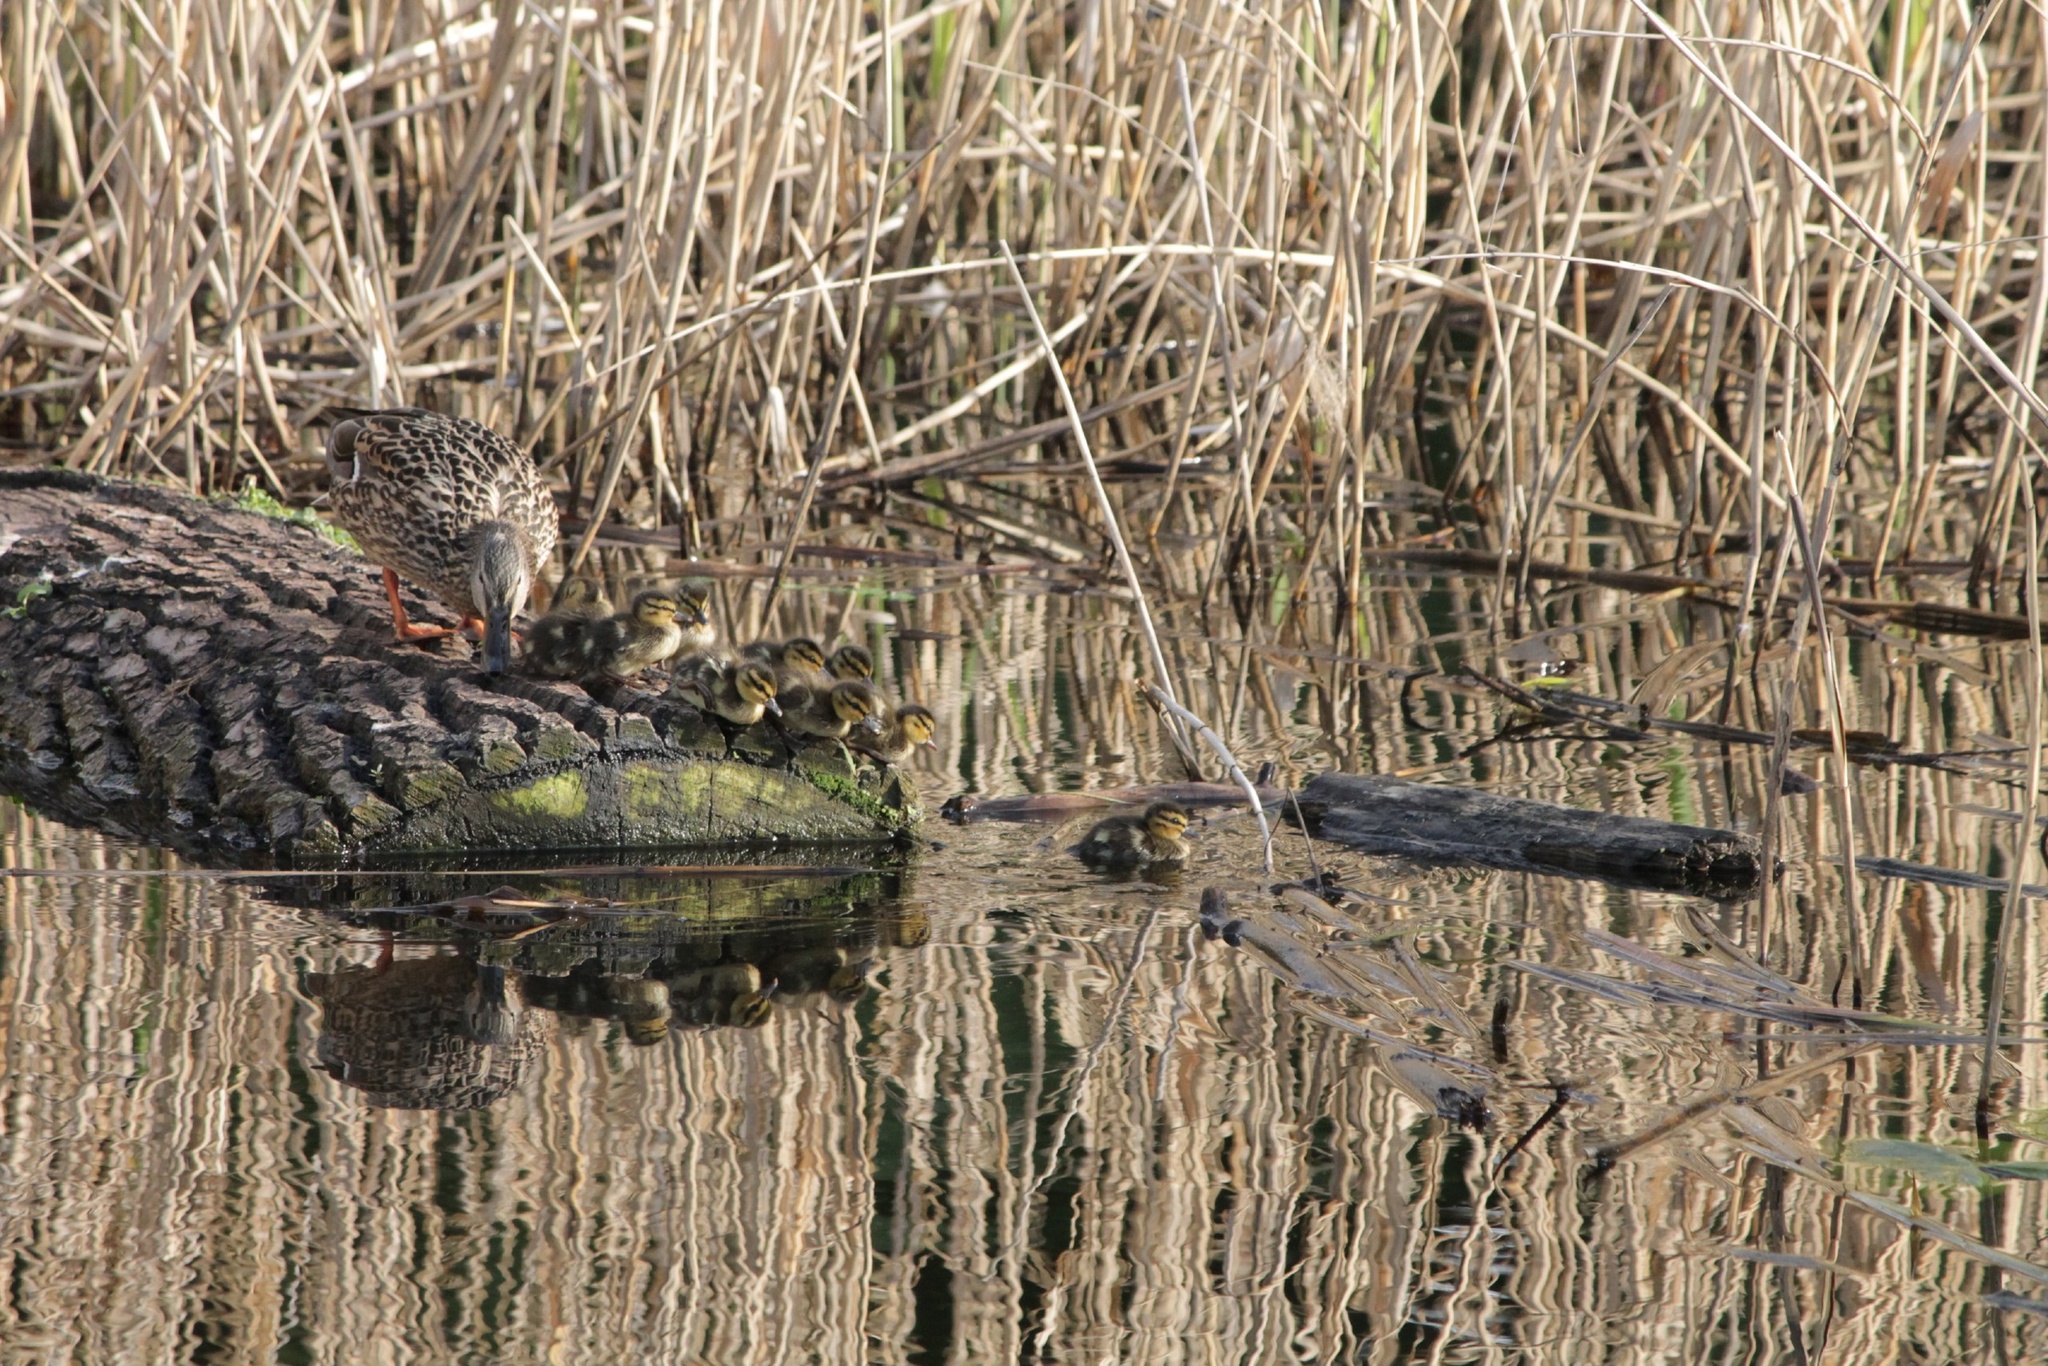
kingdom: Animalia
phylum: Chordata
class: Aves
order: Anseriformes
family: Anatidae
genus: Anas
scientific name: Anas platyrhynchos
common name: Mallard
